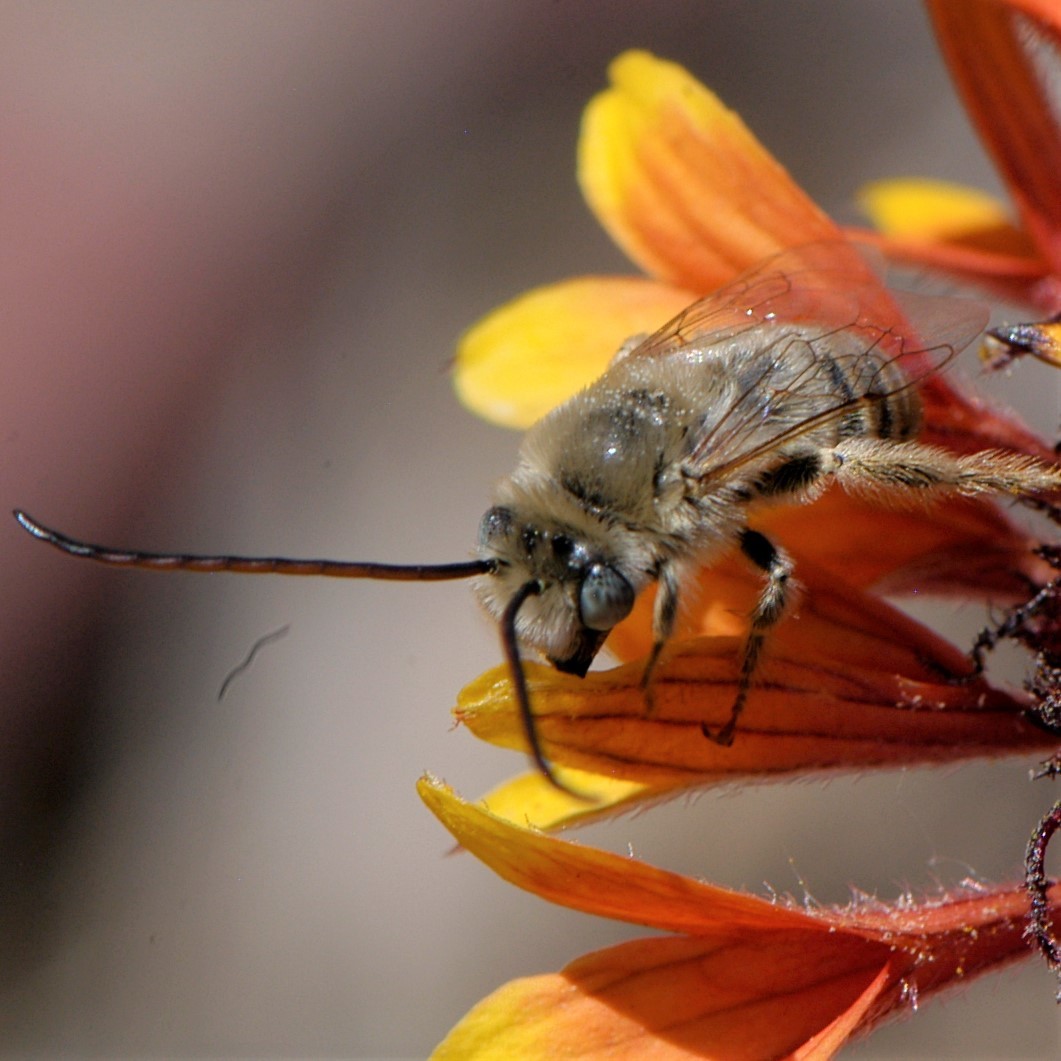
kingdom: Animalia
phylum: Arthropoda
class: Insecta
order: Hymenoptera
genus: Eumelissodes
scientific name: Eumelissodes
